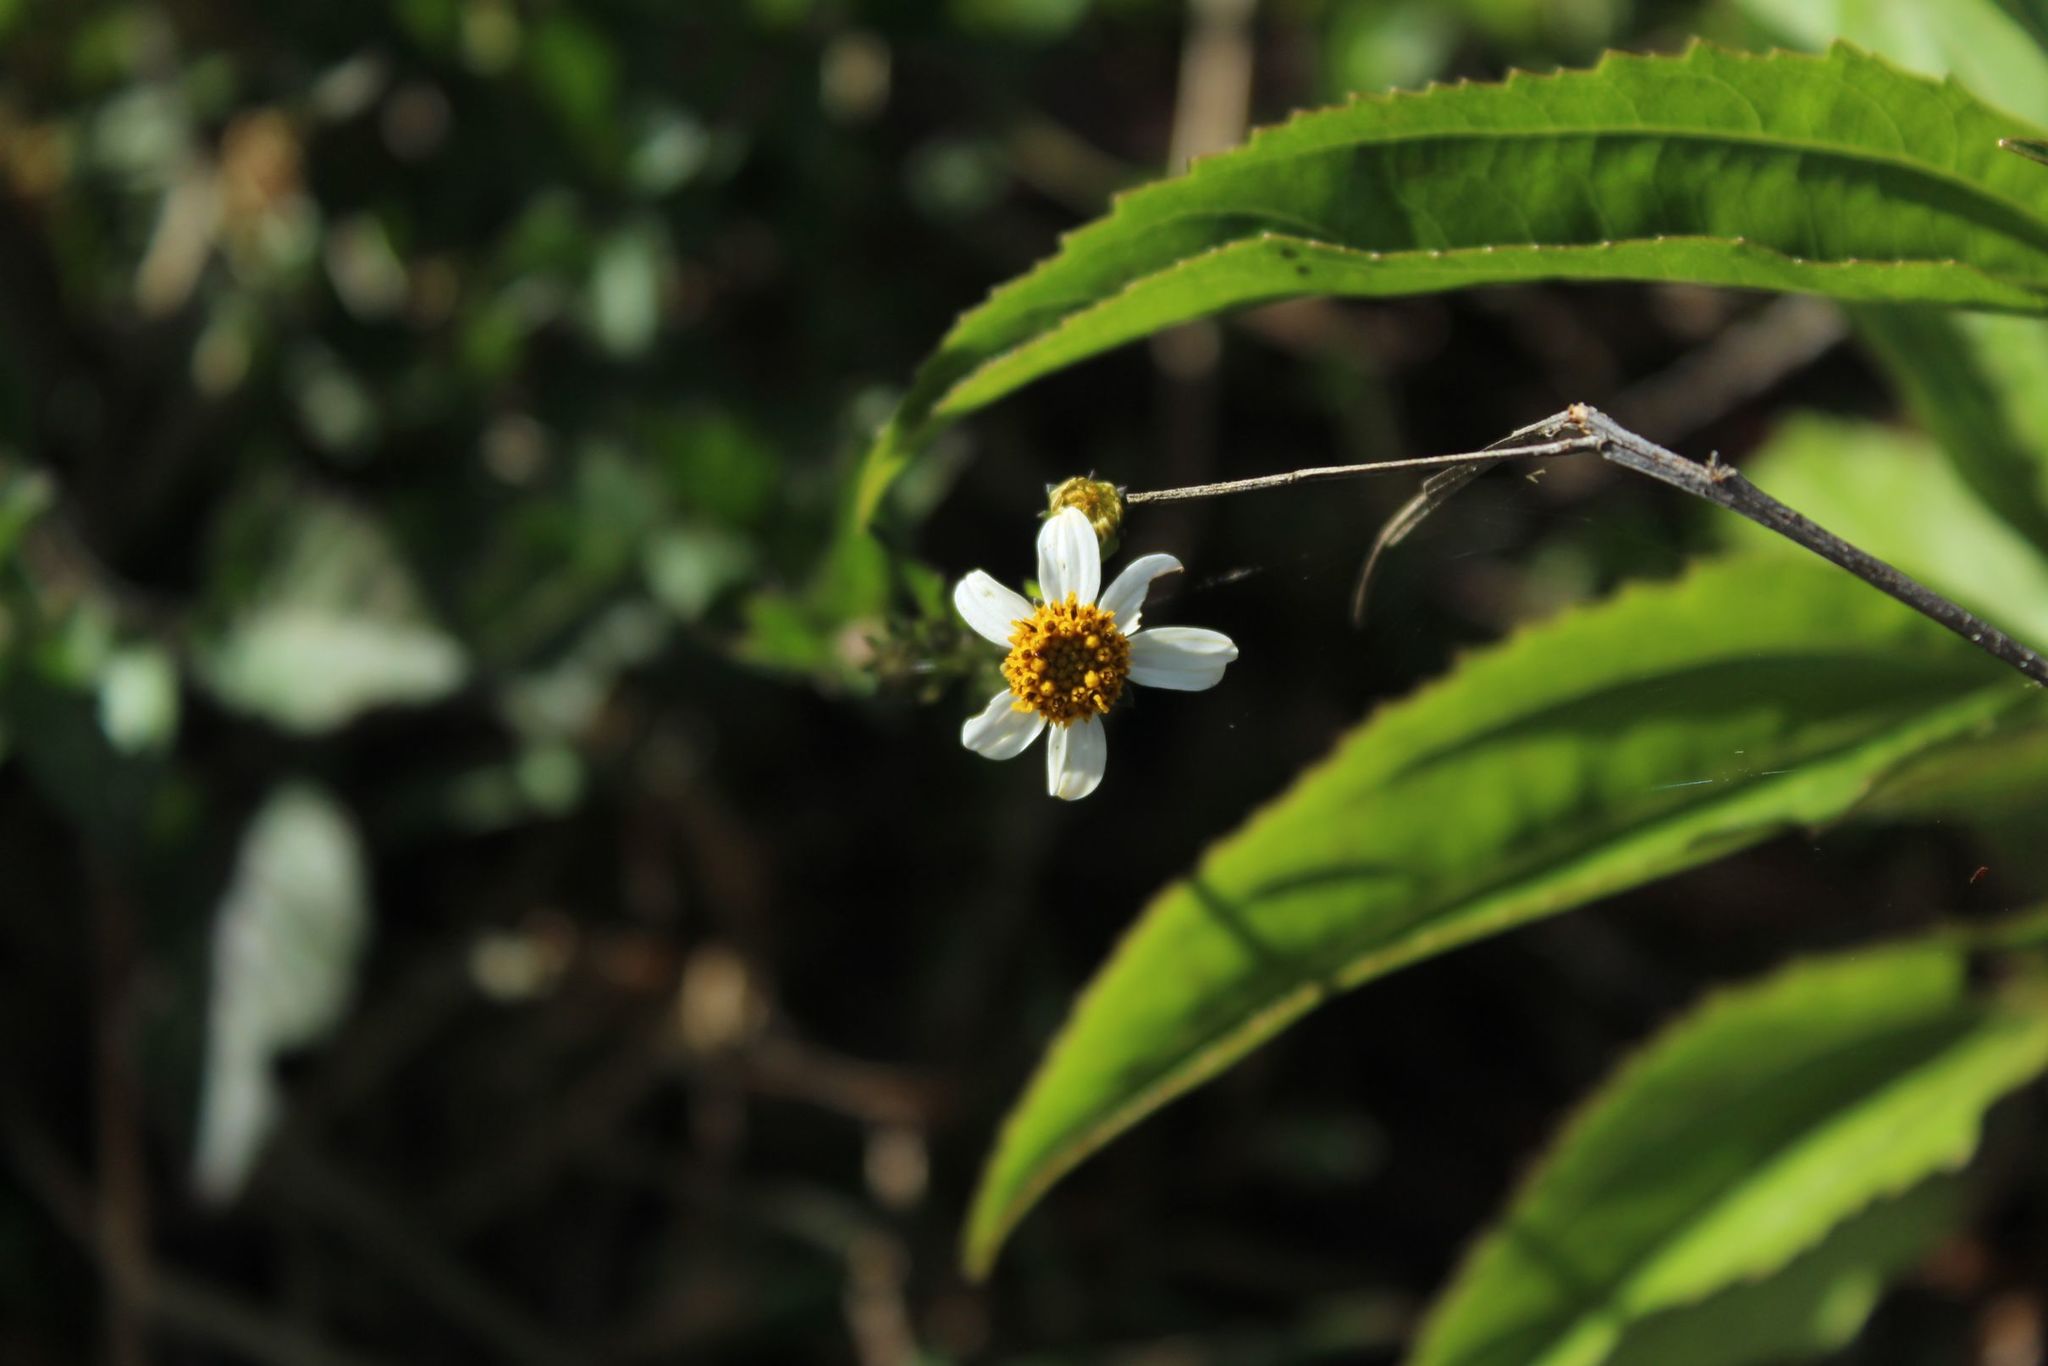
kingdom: Plantae
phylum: Tracheophyta
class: Magnoliopsida
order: Asterales
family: Asteraceae
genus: Bidens
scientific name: Bidens alba
